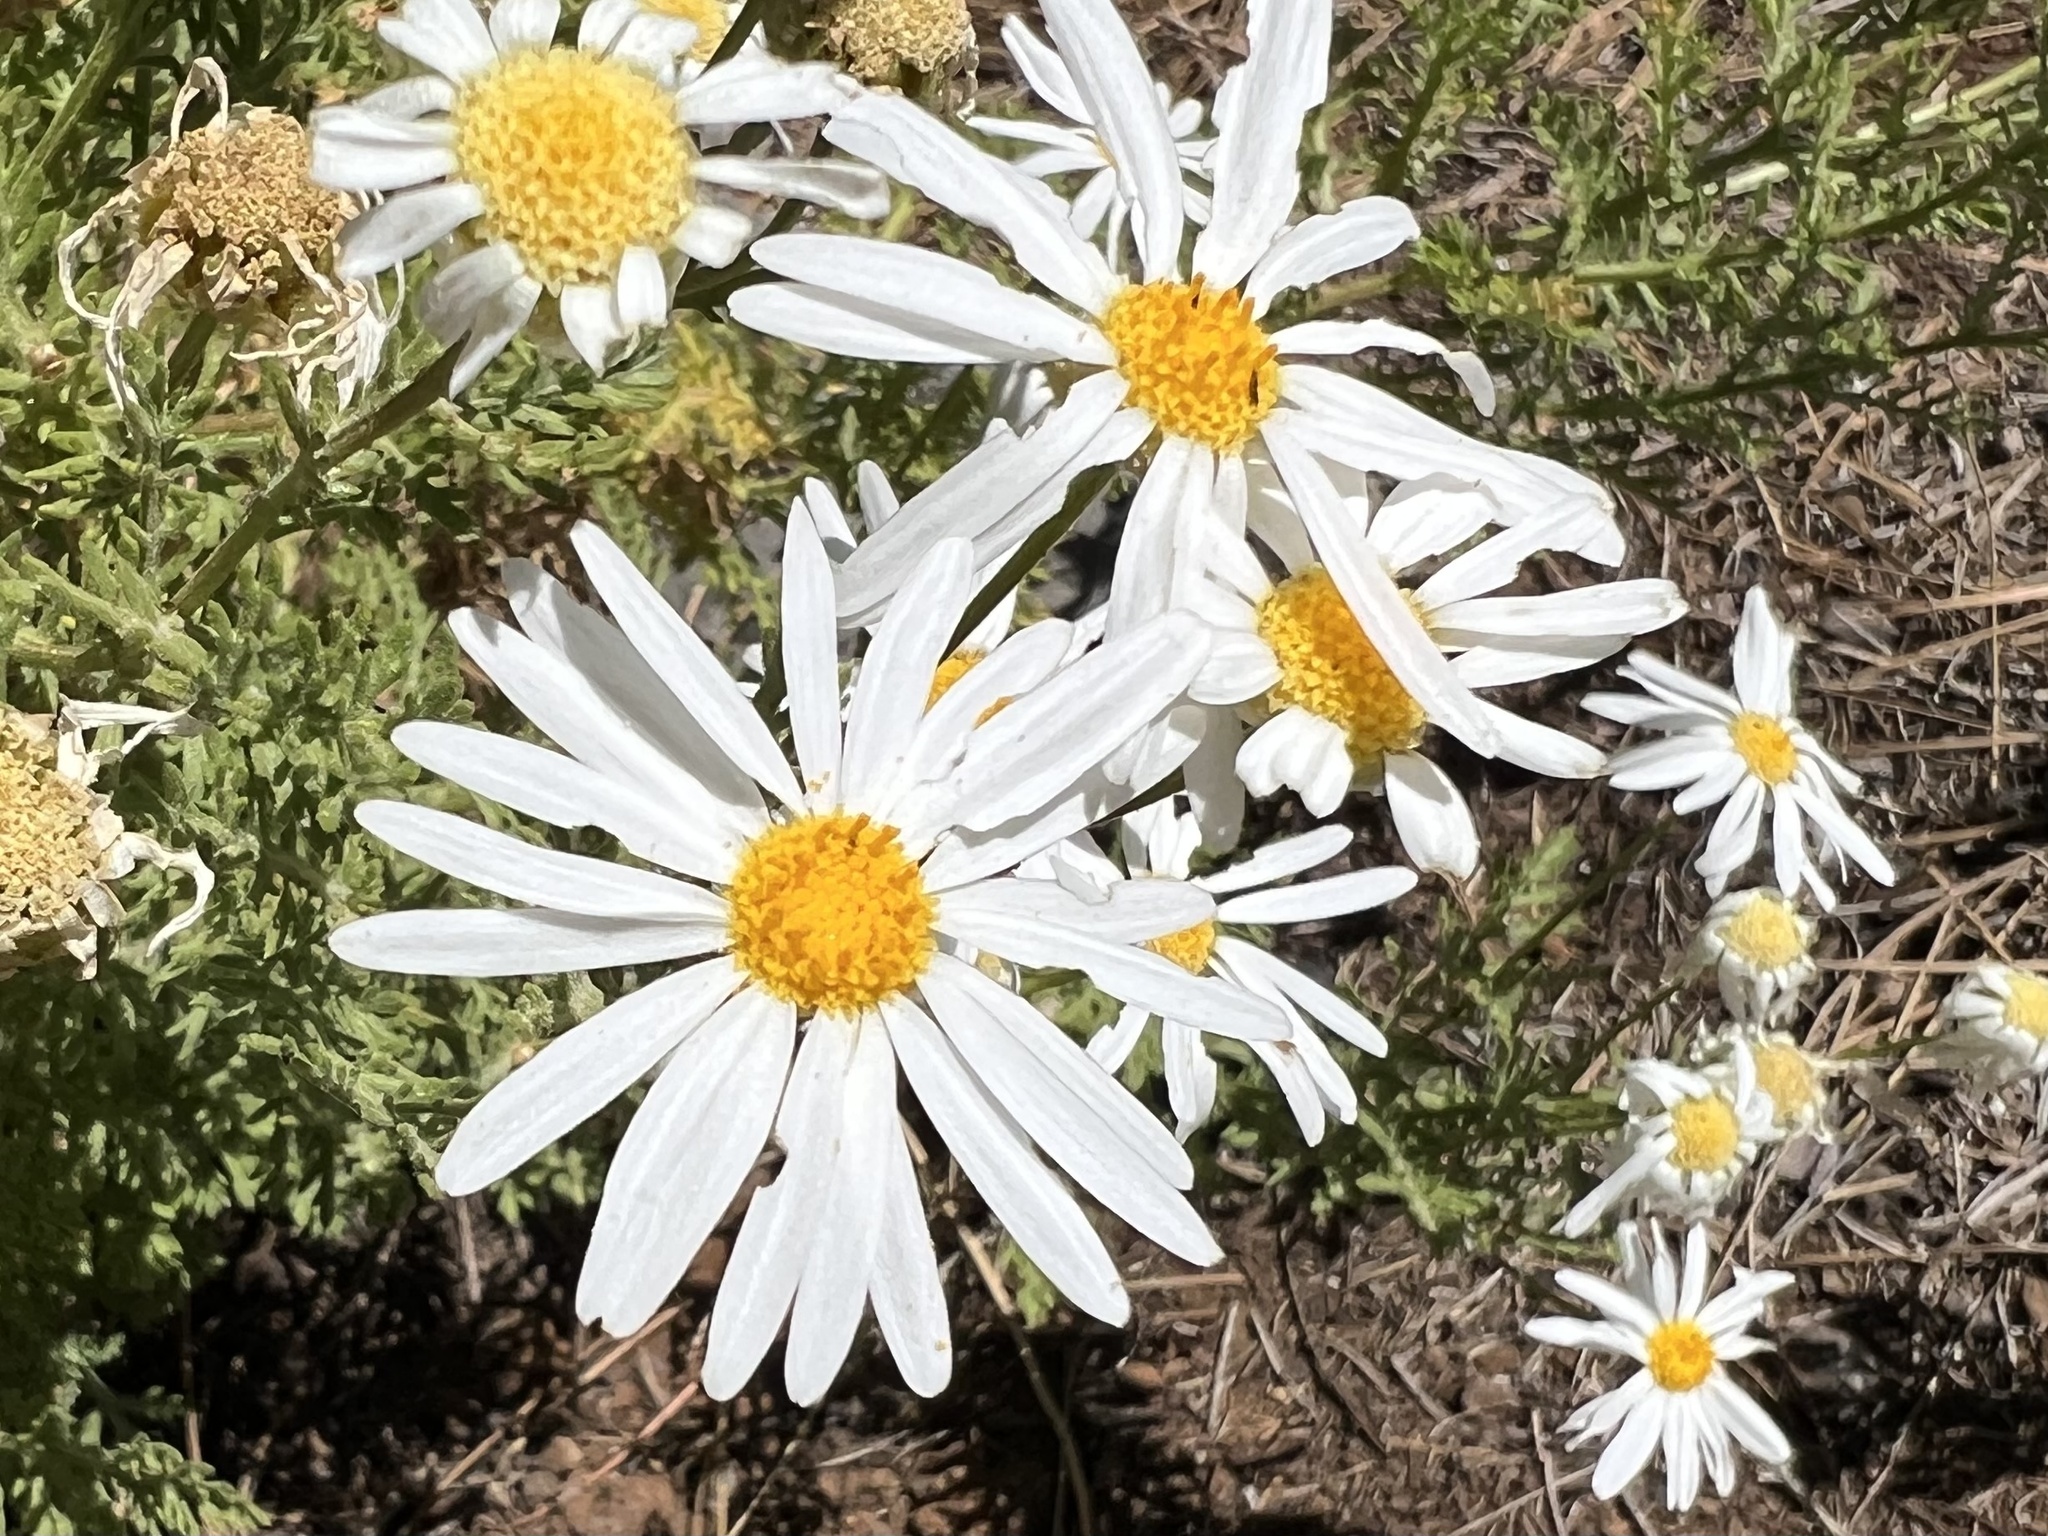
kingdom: Plantae
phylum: Tracheophyta
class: Magnoliopsida
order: Asterales
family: Asteraceae
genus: Argyranthemum
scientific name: Argyranthemum adauctum
